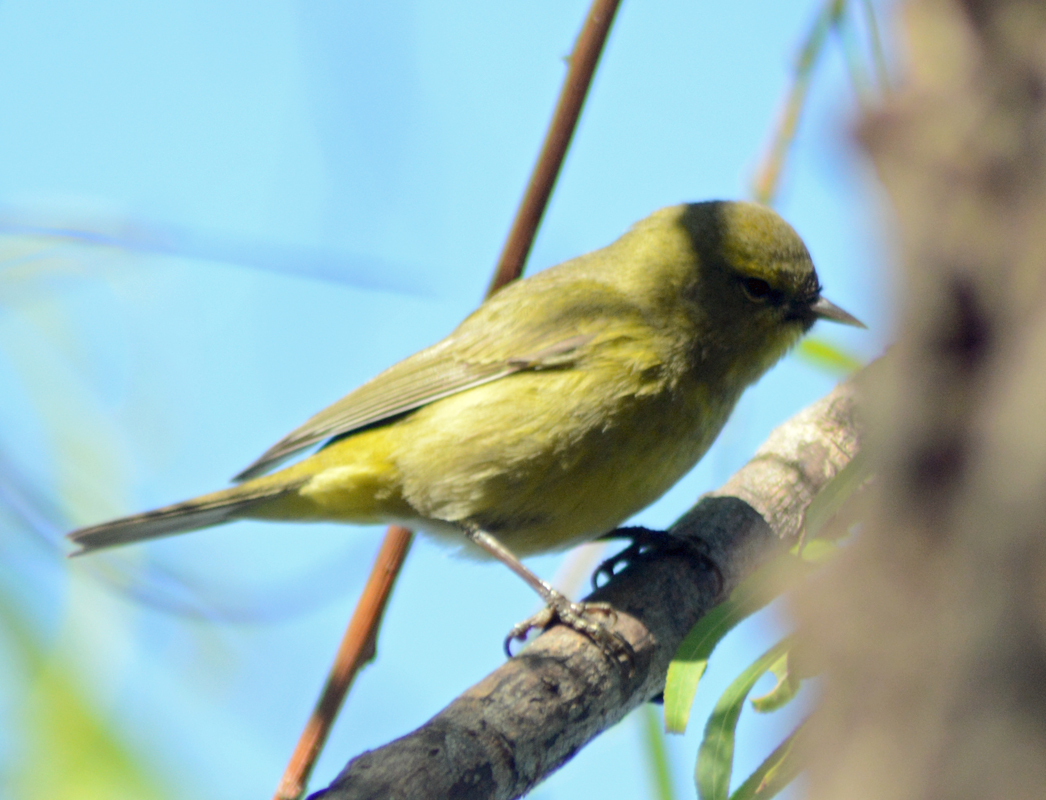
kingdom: Animalia
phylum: Chordata
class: Aves
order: Passeriformes
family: Parulidae
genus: Leiothlypis
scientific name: Leiothlypis celata
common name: Orange-crowned warbler
